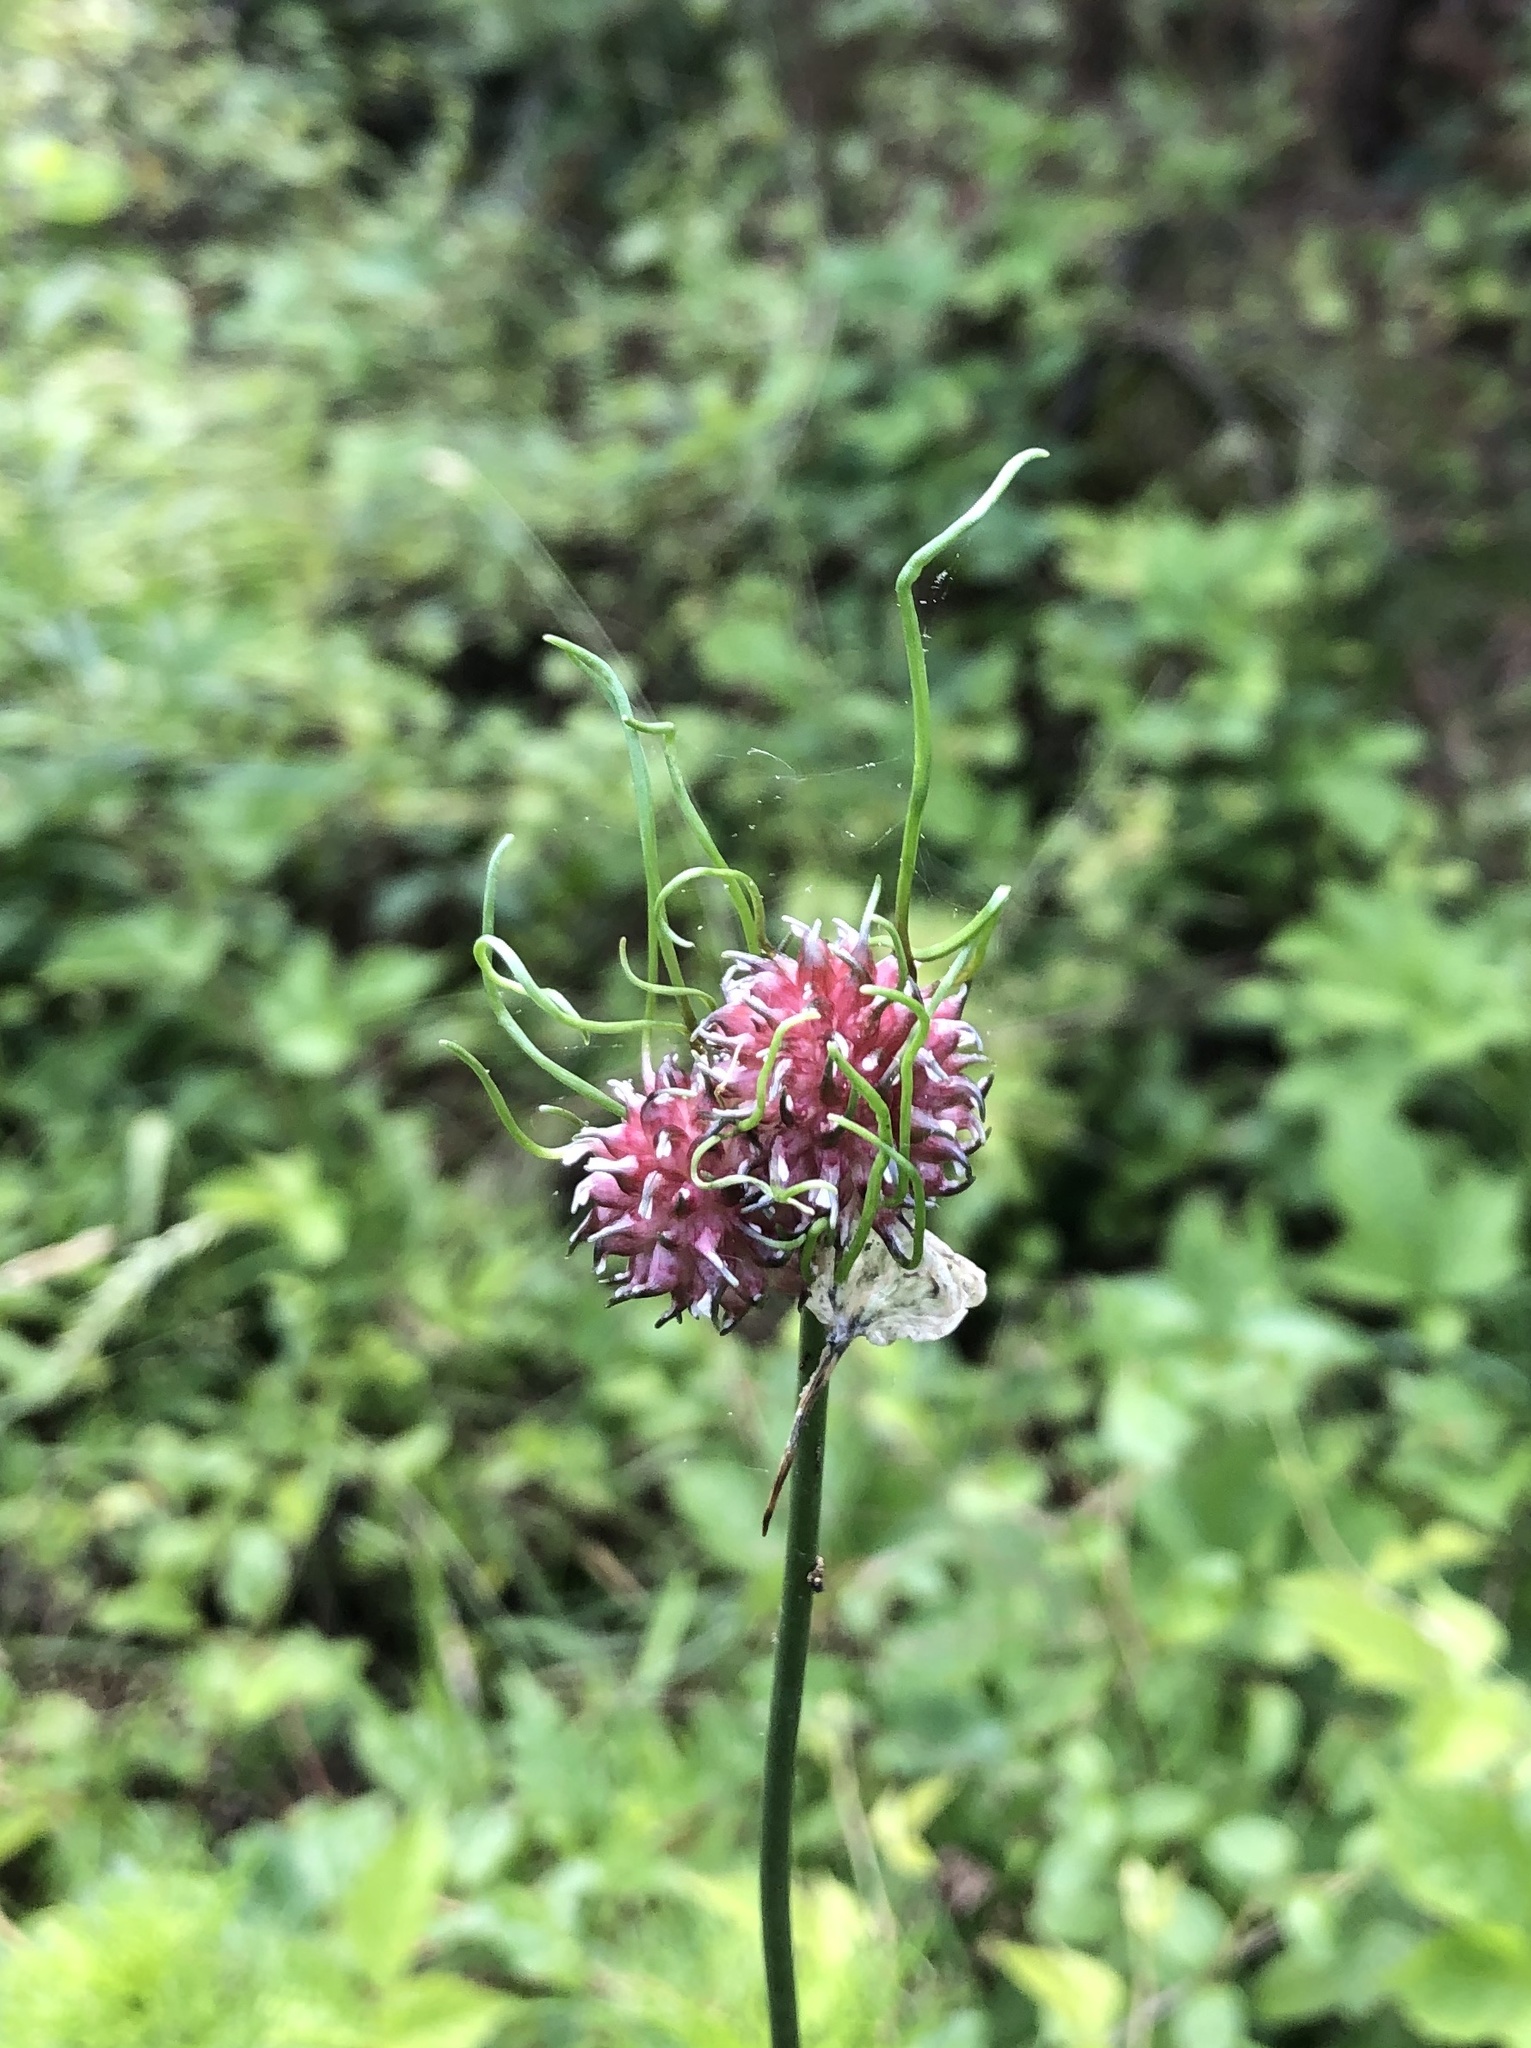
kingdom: Plantae
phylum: Tracheophyta
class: Liliopsida
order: Asparagales
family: Amaryllidaceae
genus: Allium
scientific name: Allium vineale
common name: Crow garlic
